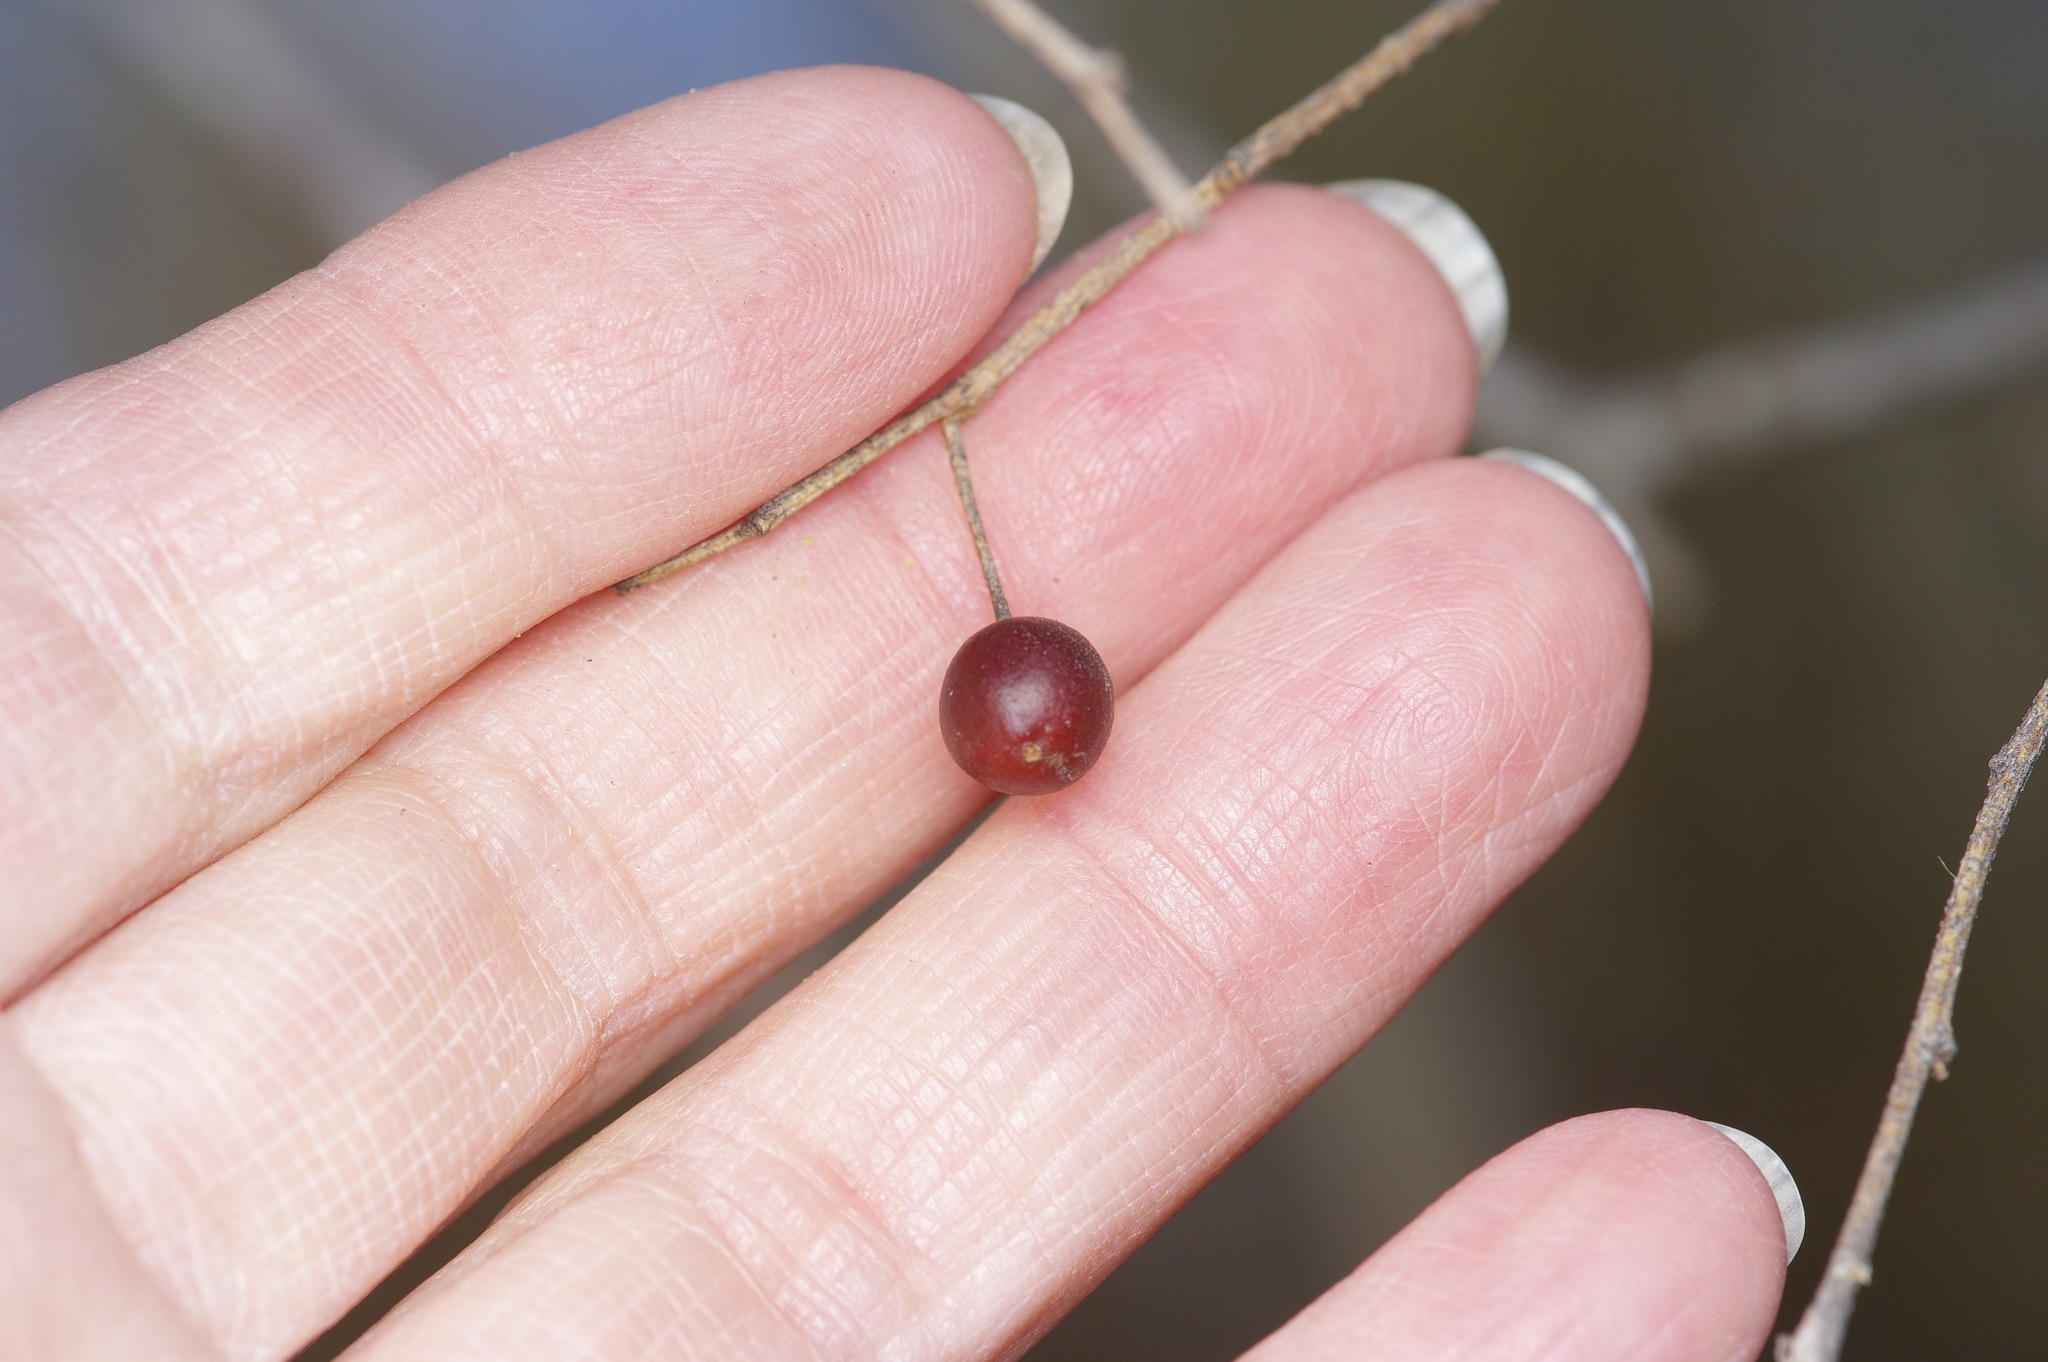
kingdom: Plantae
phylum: Tracheophyta
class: Magnoliopsida
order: Rosales
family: Cannabaceae
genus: Celtis
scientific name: Celtis laevigata
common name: Sugarberry
